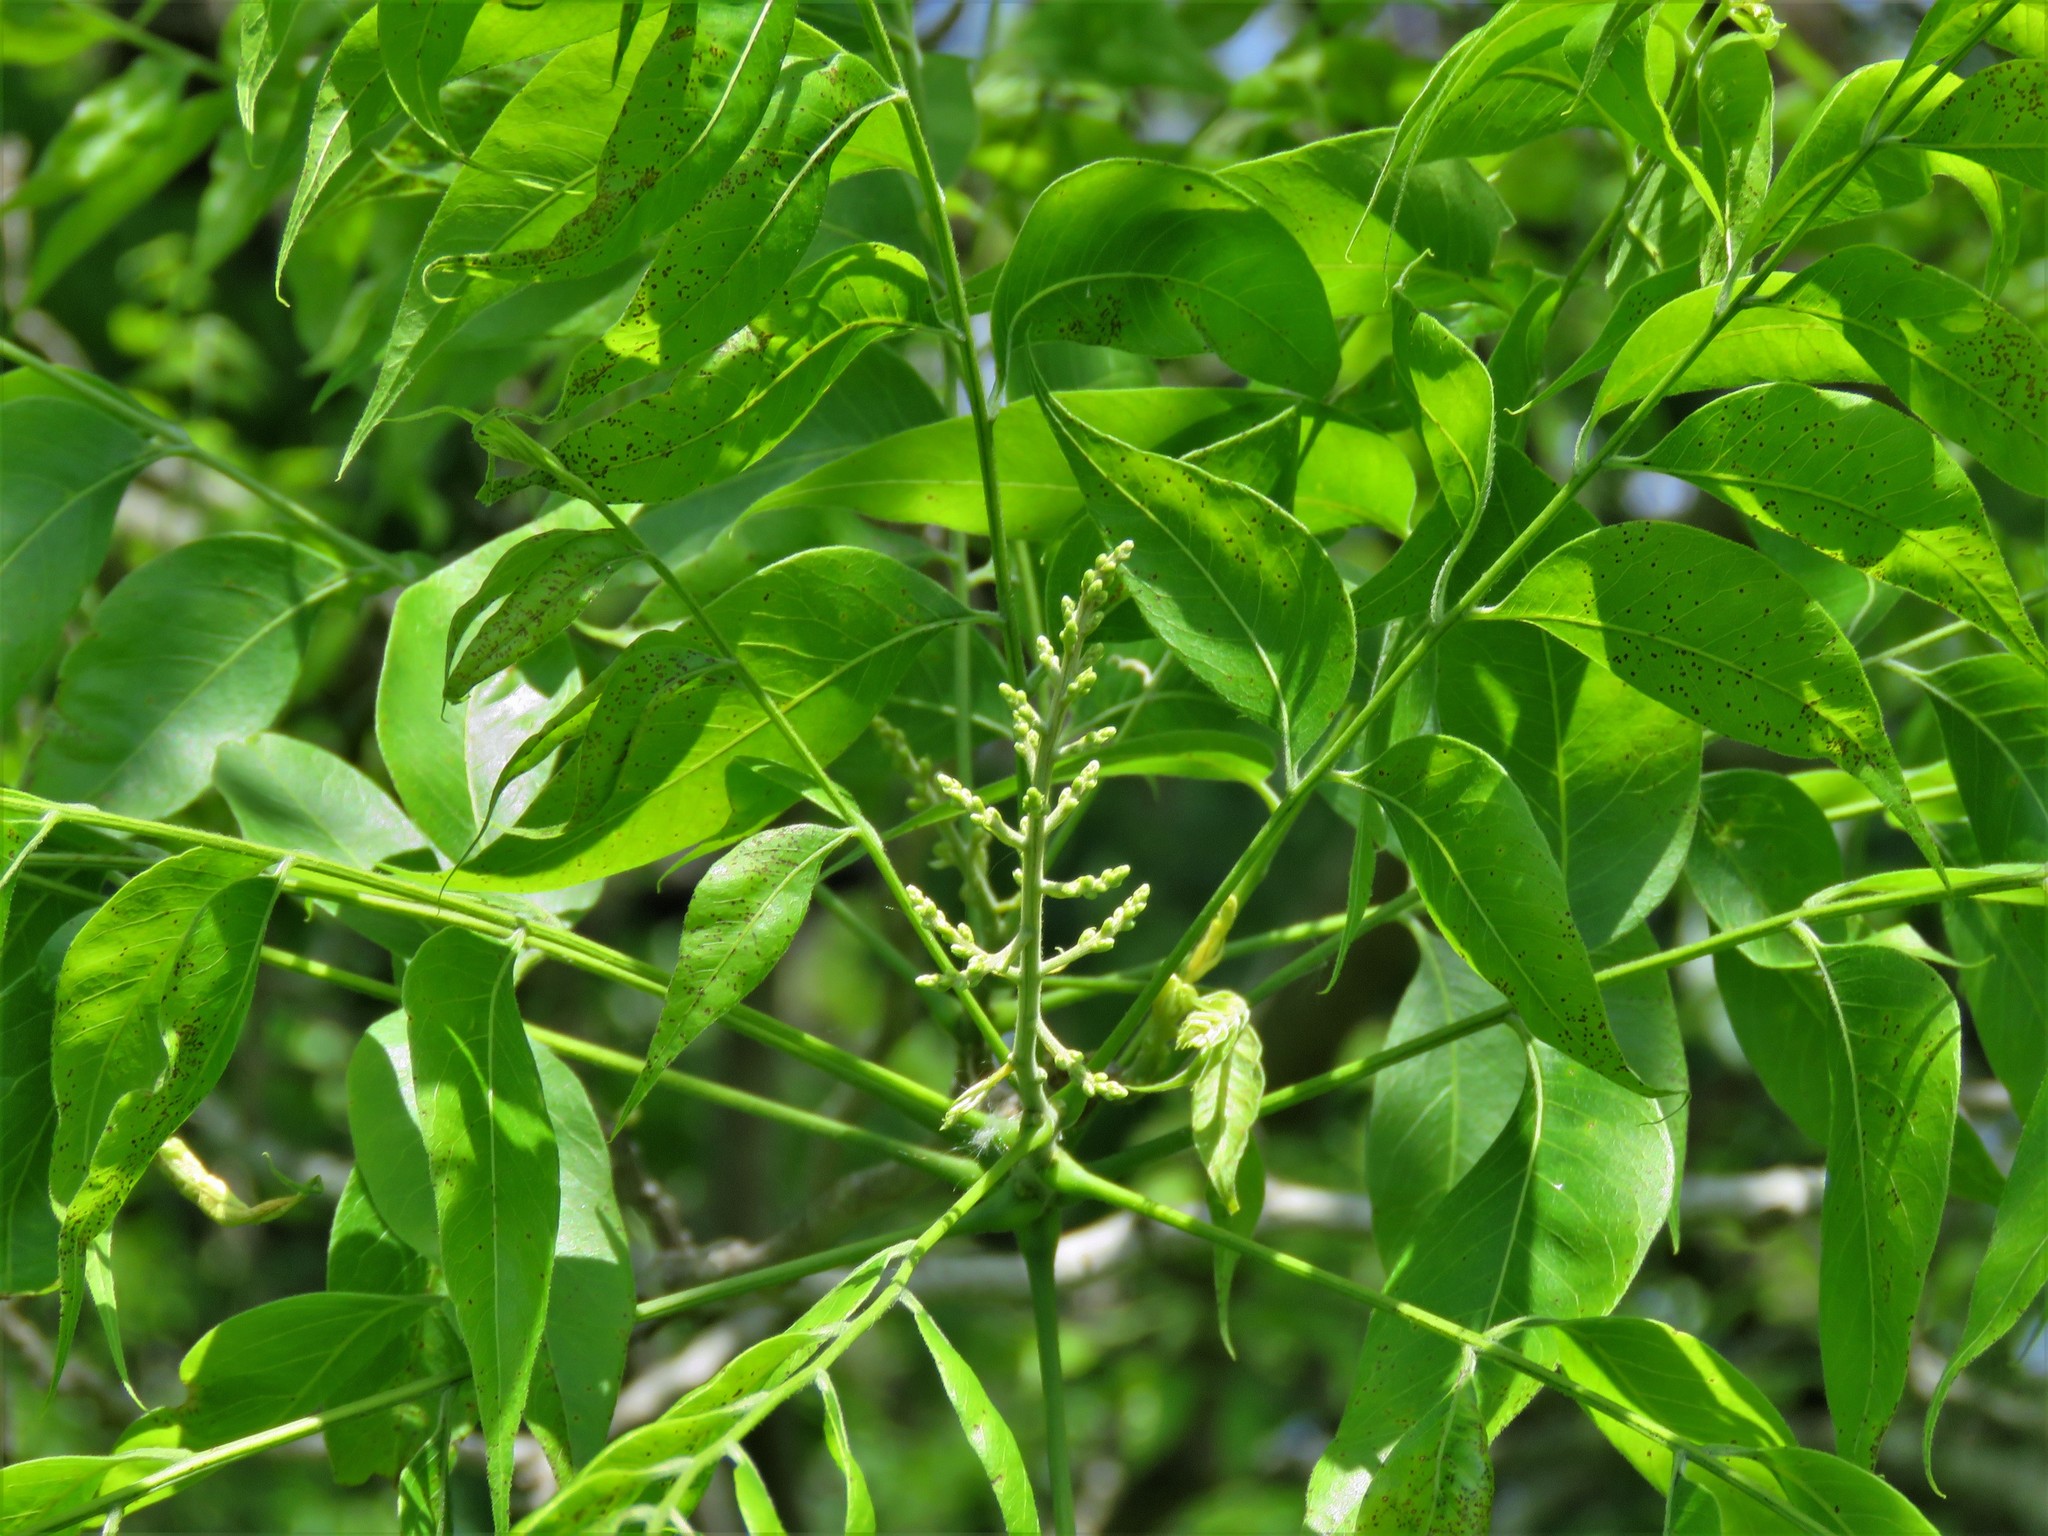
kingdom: Plantae
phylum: Tracheophyta
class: Magnoliopsida
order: Sapindales
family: Sapindaceae
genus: Sapindus
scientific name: Sapindus drummondii
